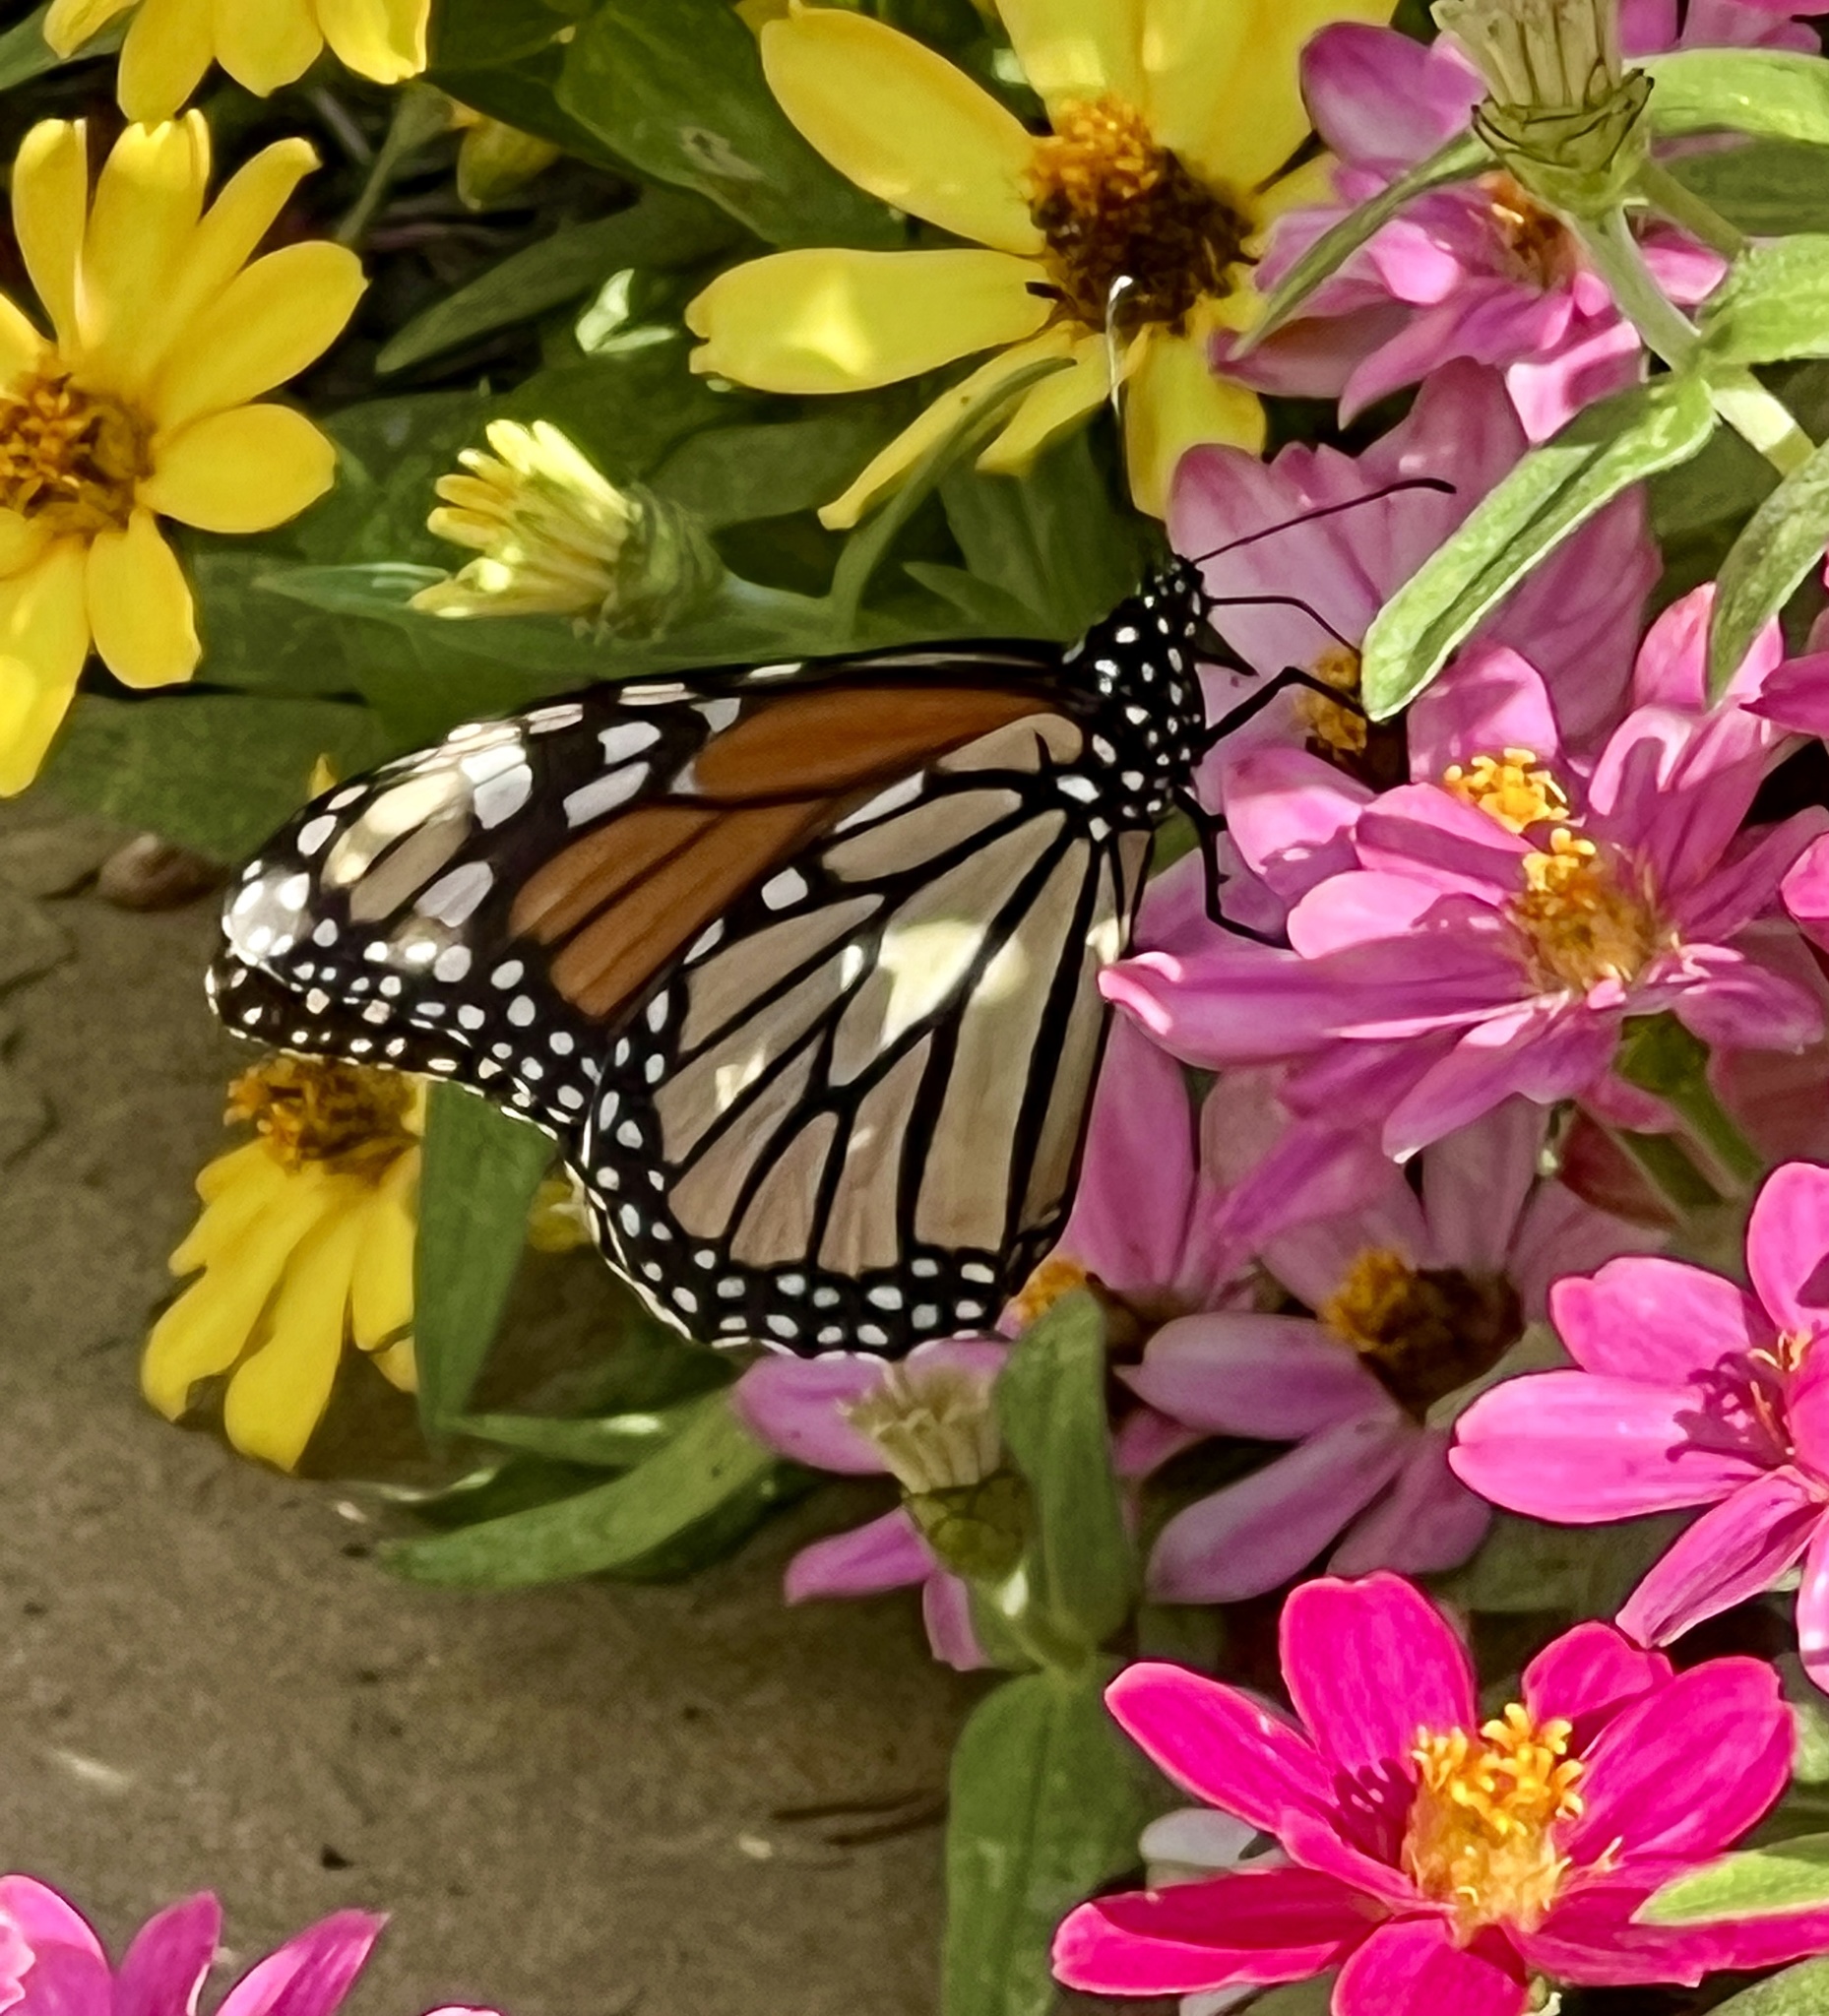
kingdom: Animalia
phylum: Arthropoda
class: Insecta
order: Lepidoptera
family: Nymphalidae
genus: Danaus
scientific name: Danaus plexippus
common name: Monarch
